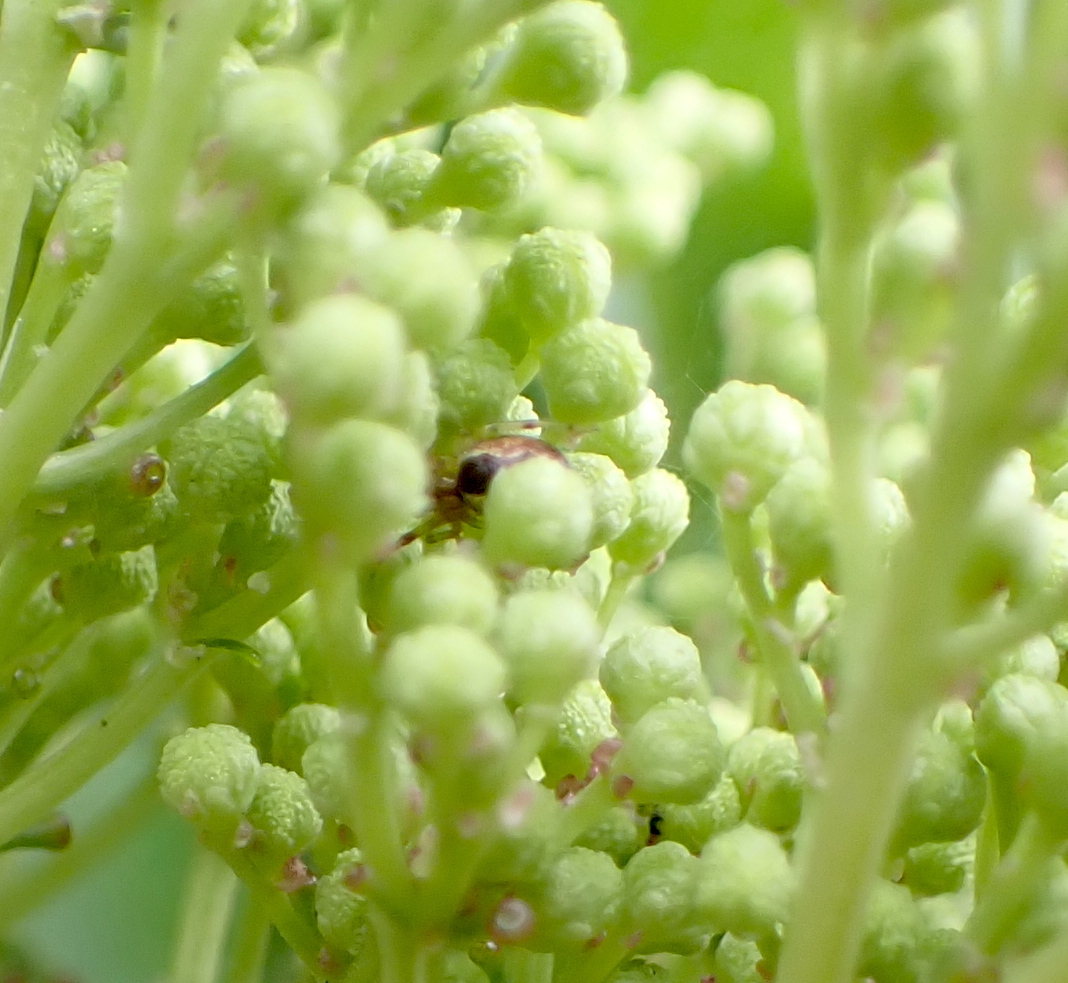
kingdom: Animalia
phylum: Arthropoda
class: Arachnida
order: Araneae
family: Theridiidae
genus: Anelosimus
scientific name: Anelosimus vittatus
